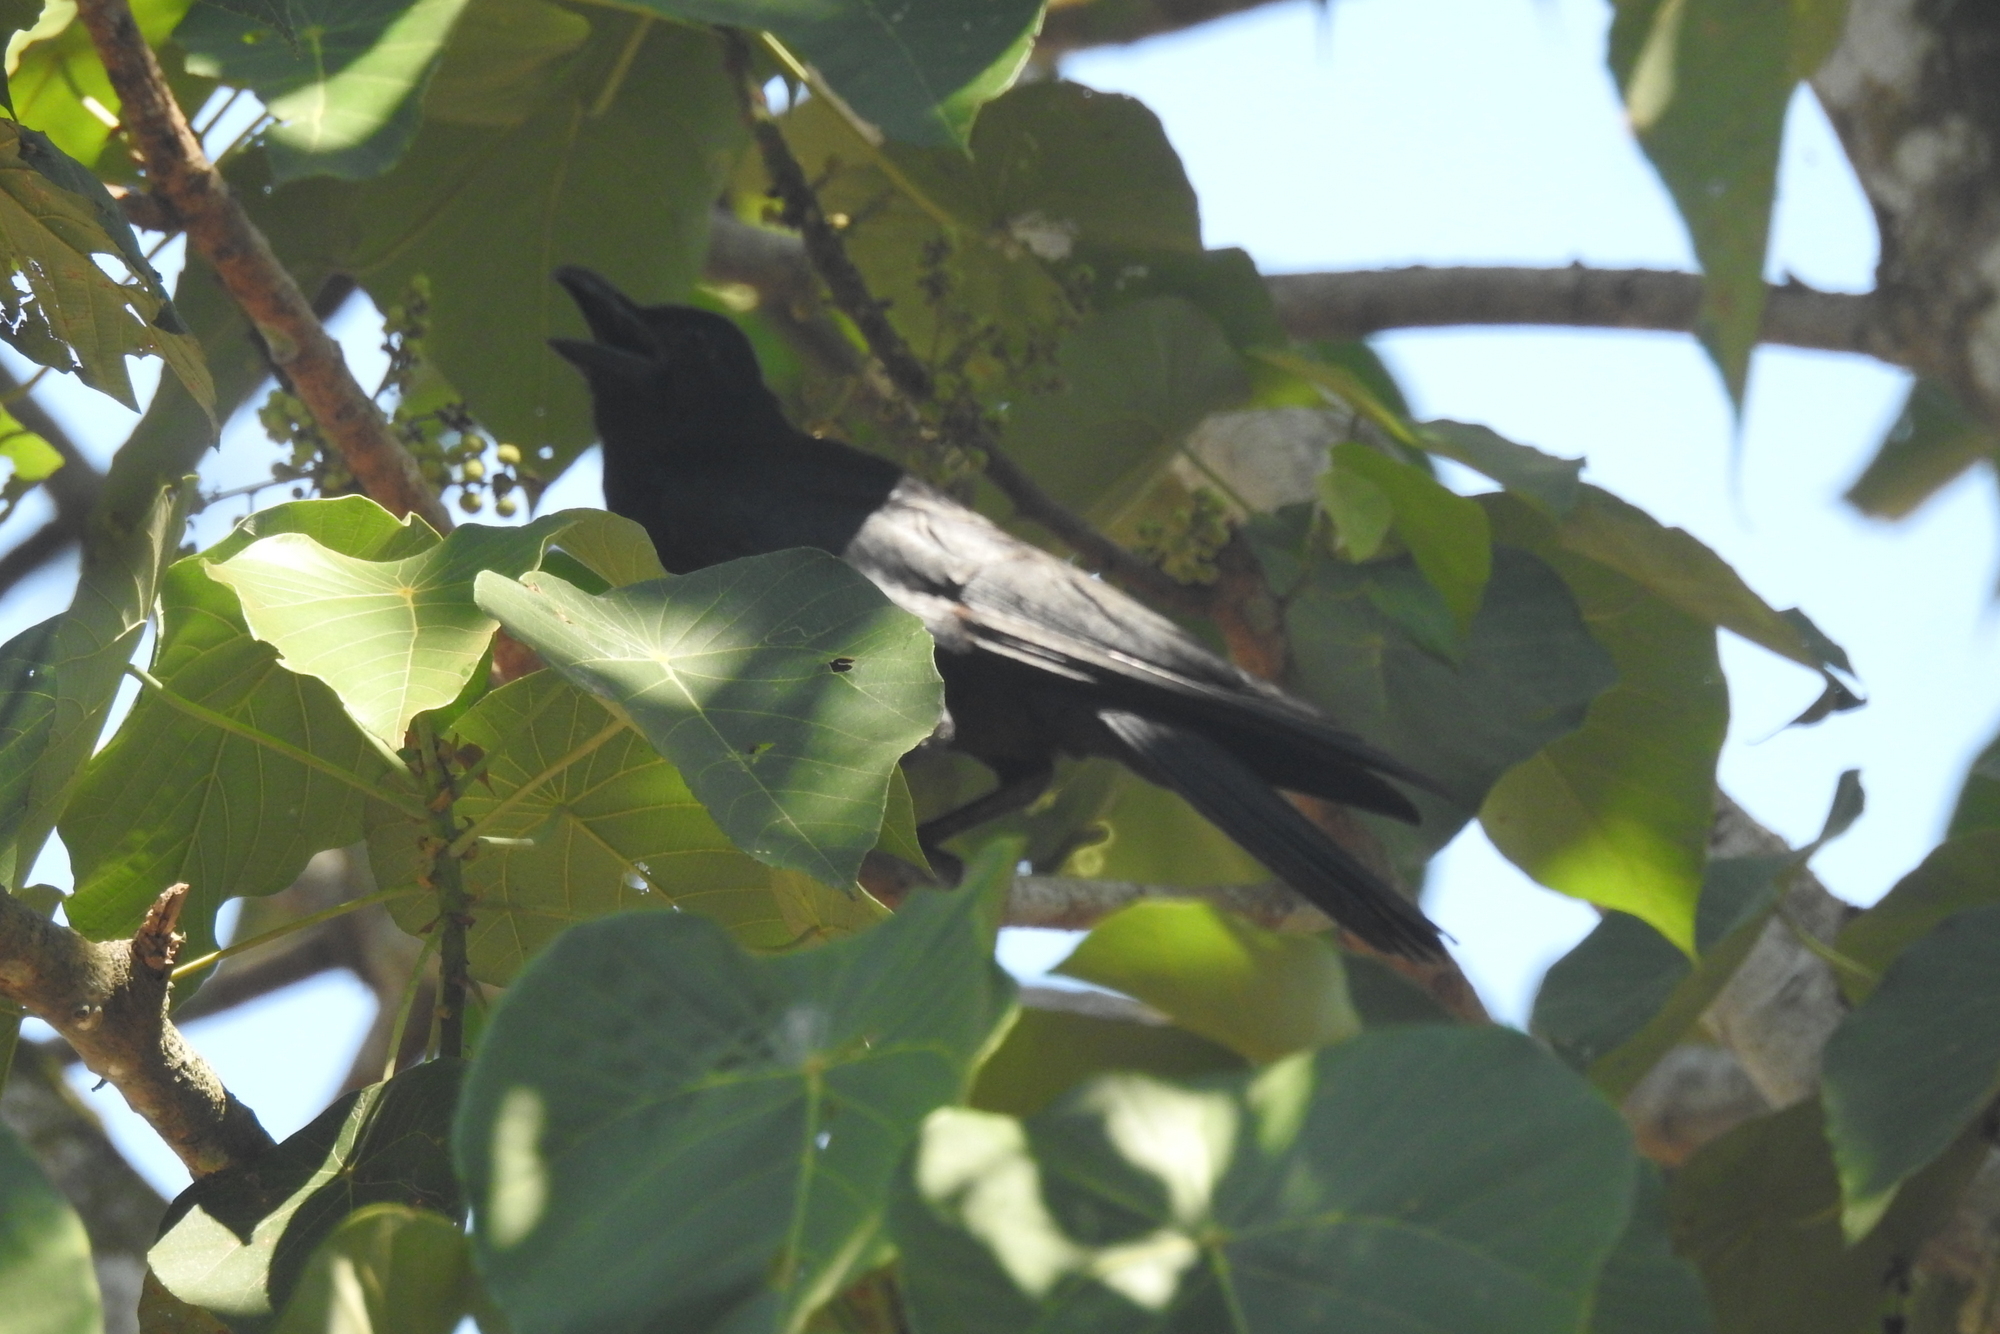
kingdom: Animalia
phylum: Chordata
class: Aves
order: Passeriformes
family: Corvidae
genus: Corvus
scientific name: Corvus macrorhynchos
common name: Large-billed crow
